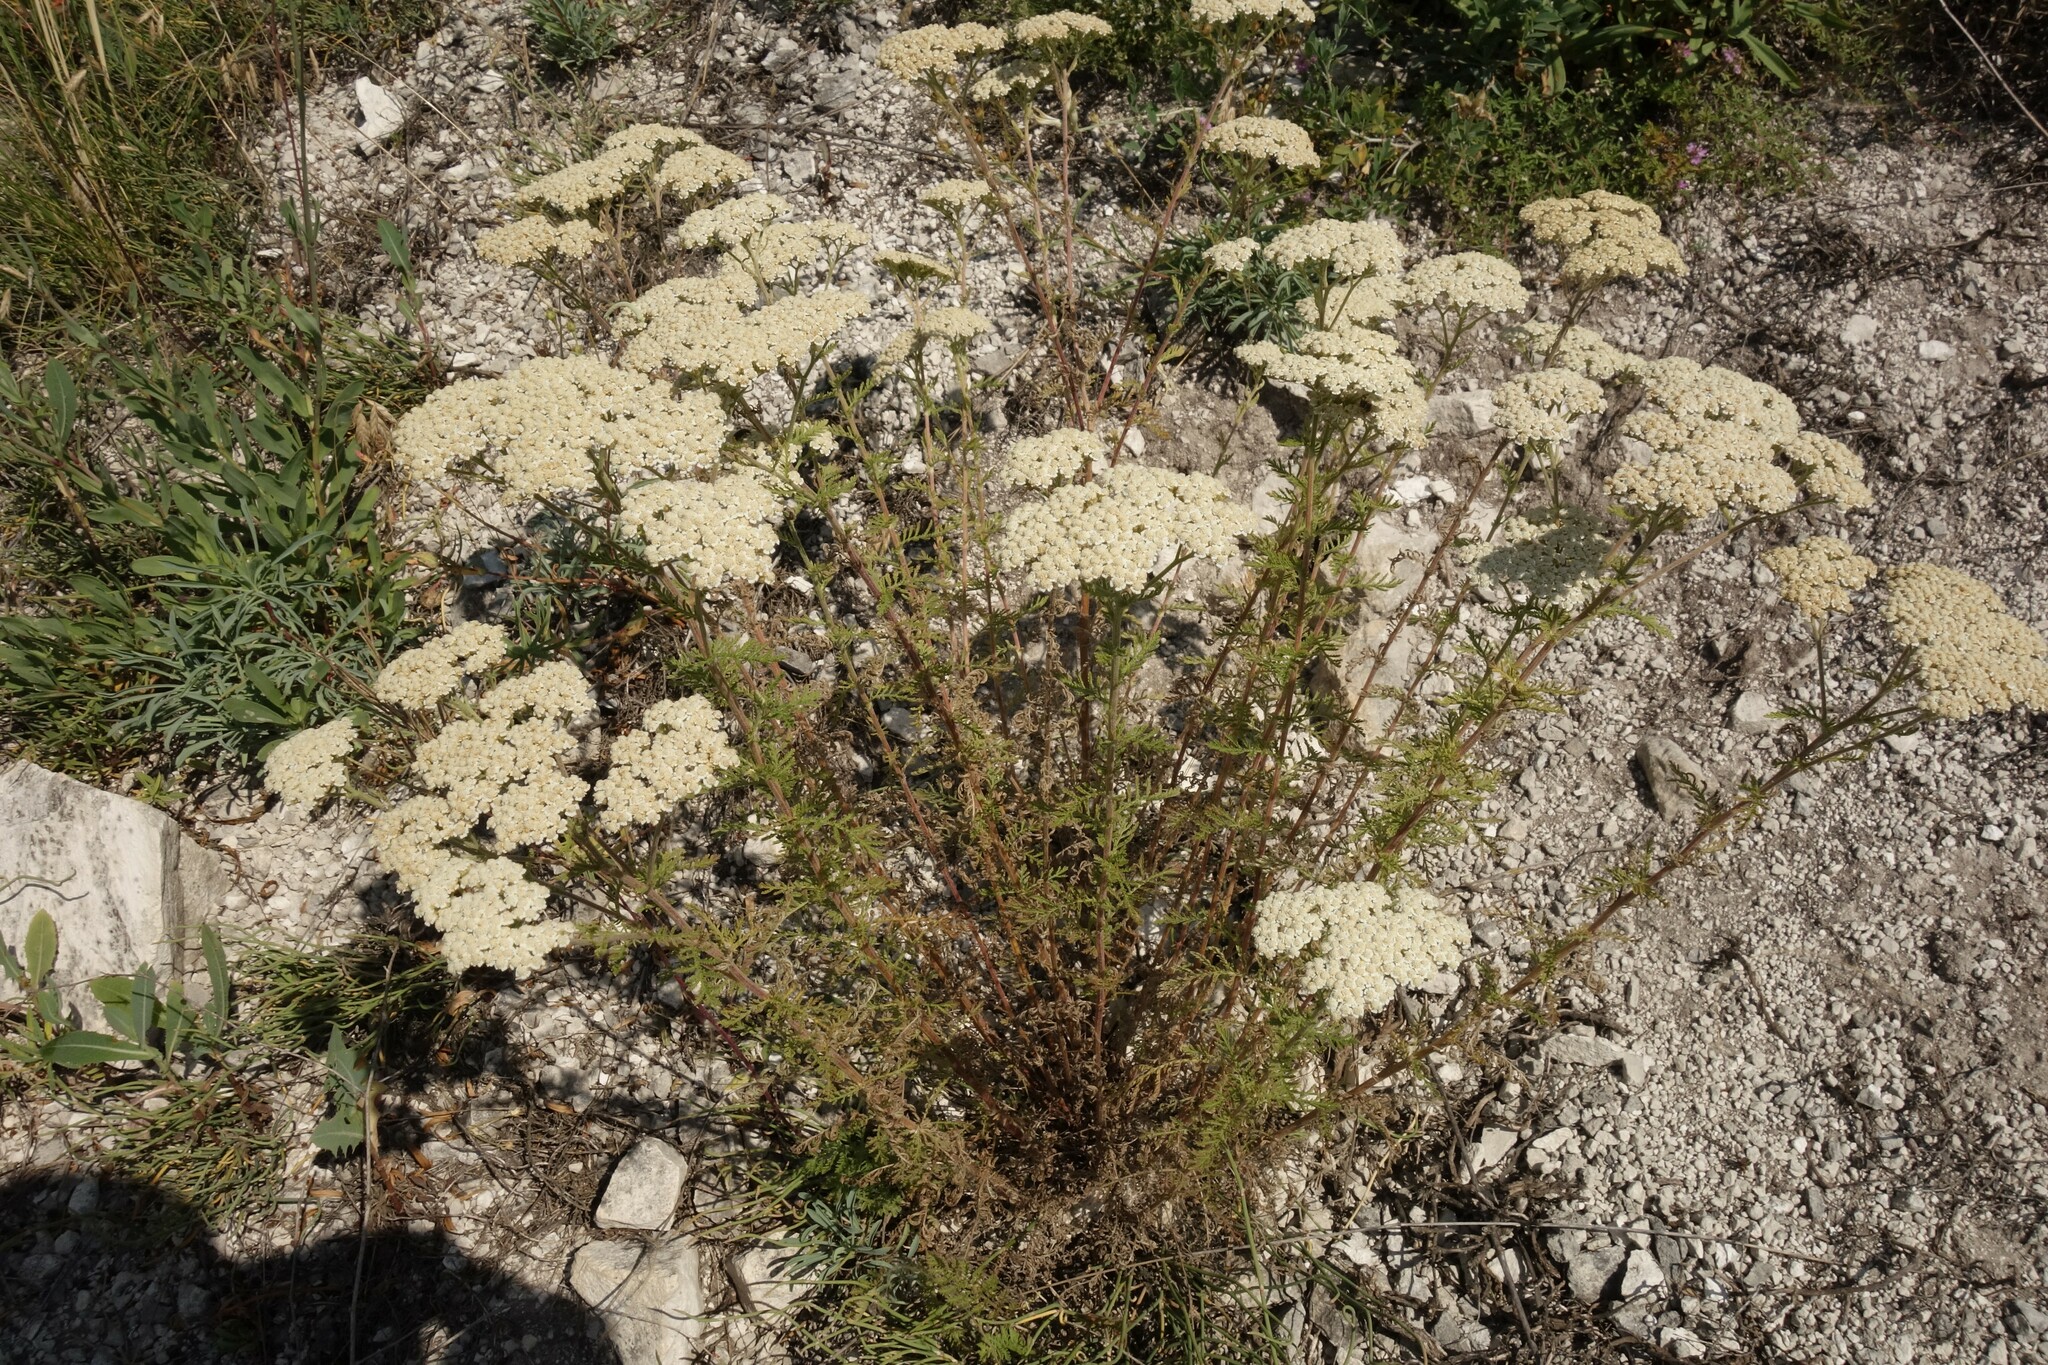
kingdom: Plantae
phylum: Tracheophyta
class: Magnoliopsida
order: Asterales
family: Asteraceae
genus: Achillea
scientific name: Achillea nobilis
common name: Noble yarrow
